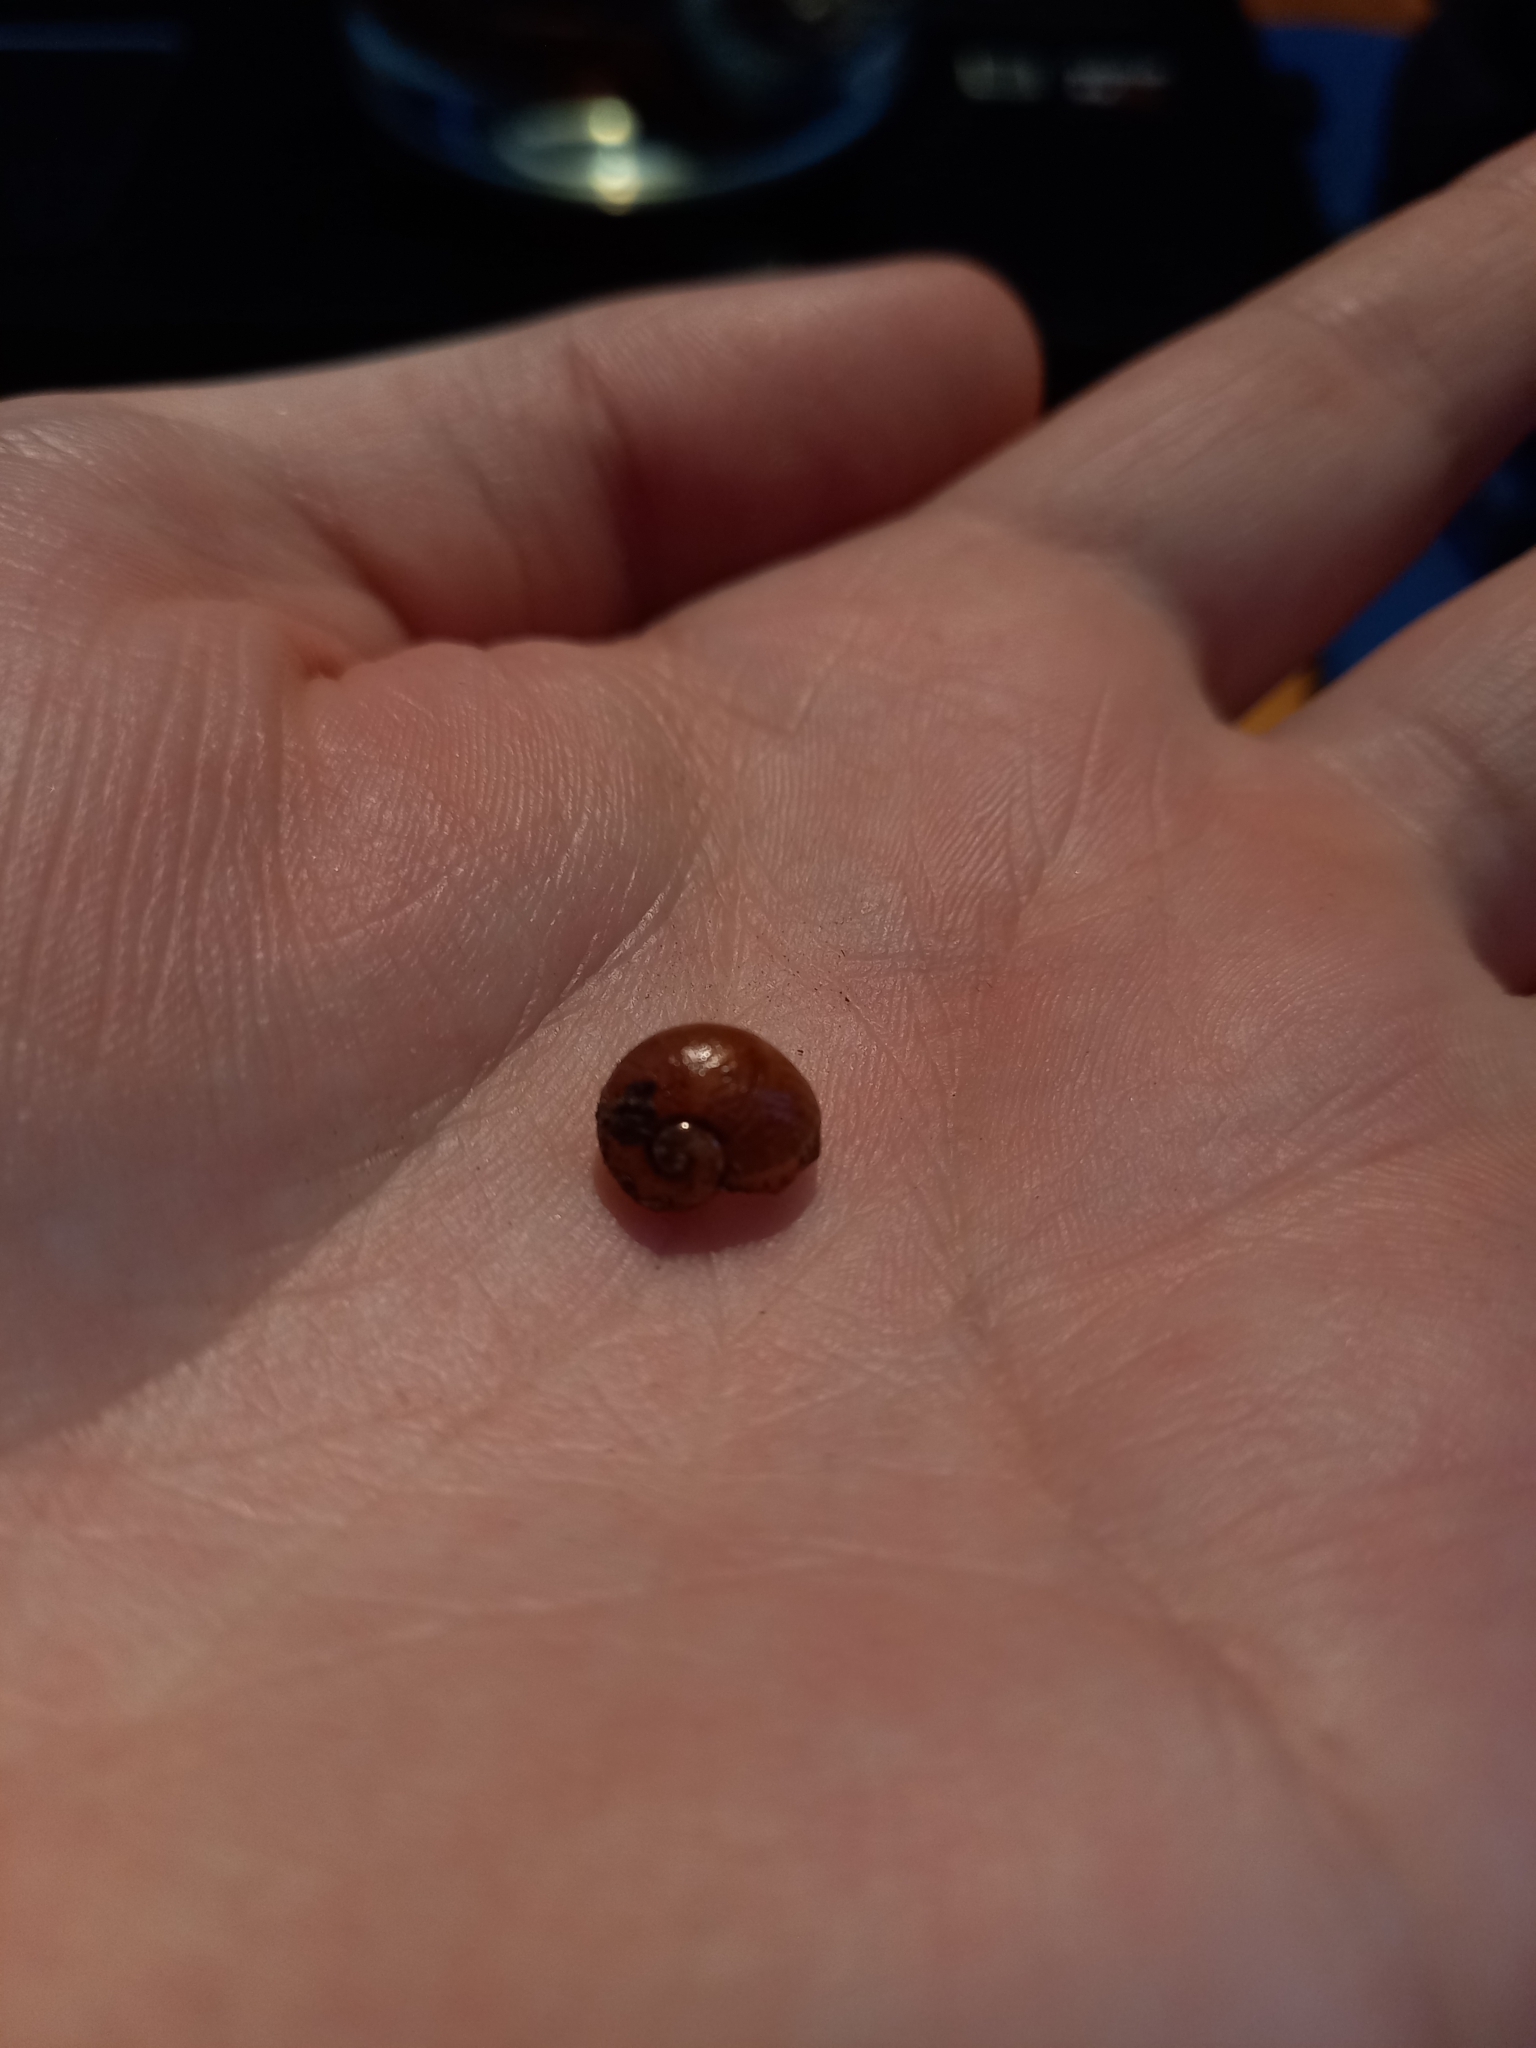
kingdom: Animalia
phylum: Mollusca
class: Gastropoda
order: Stylommatophora
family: Rhytididae
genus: Wainuia
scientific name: Wainuia urnula
